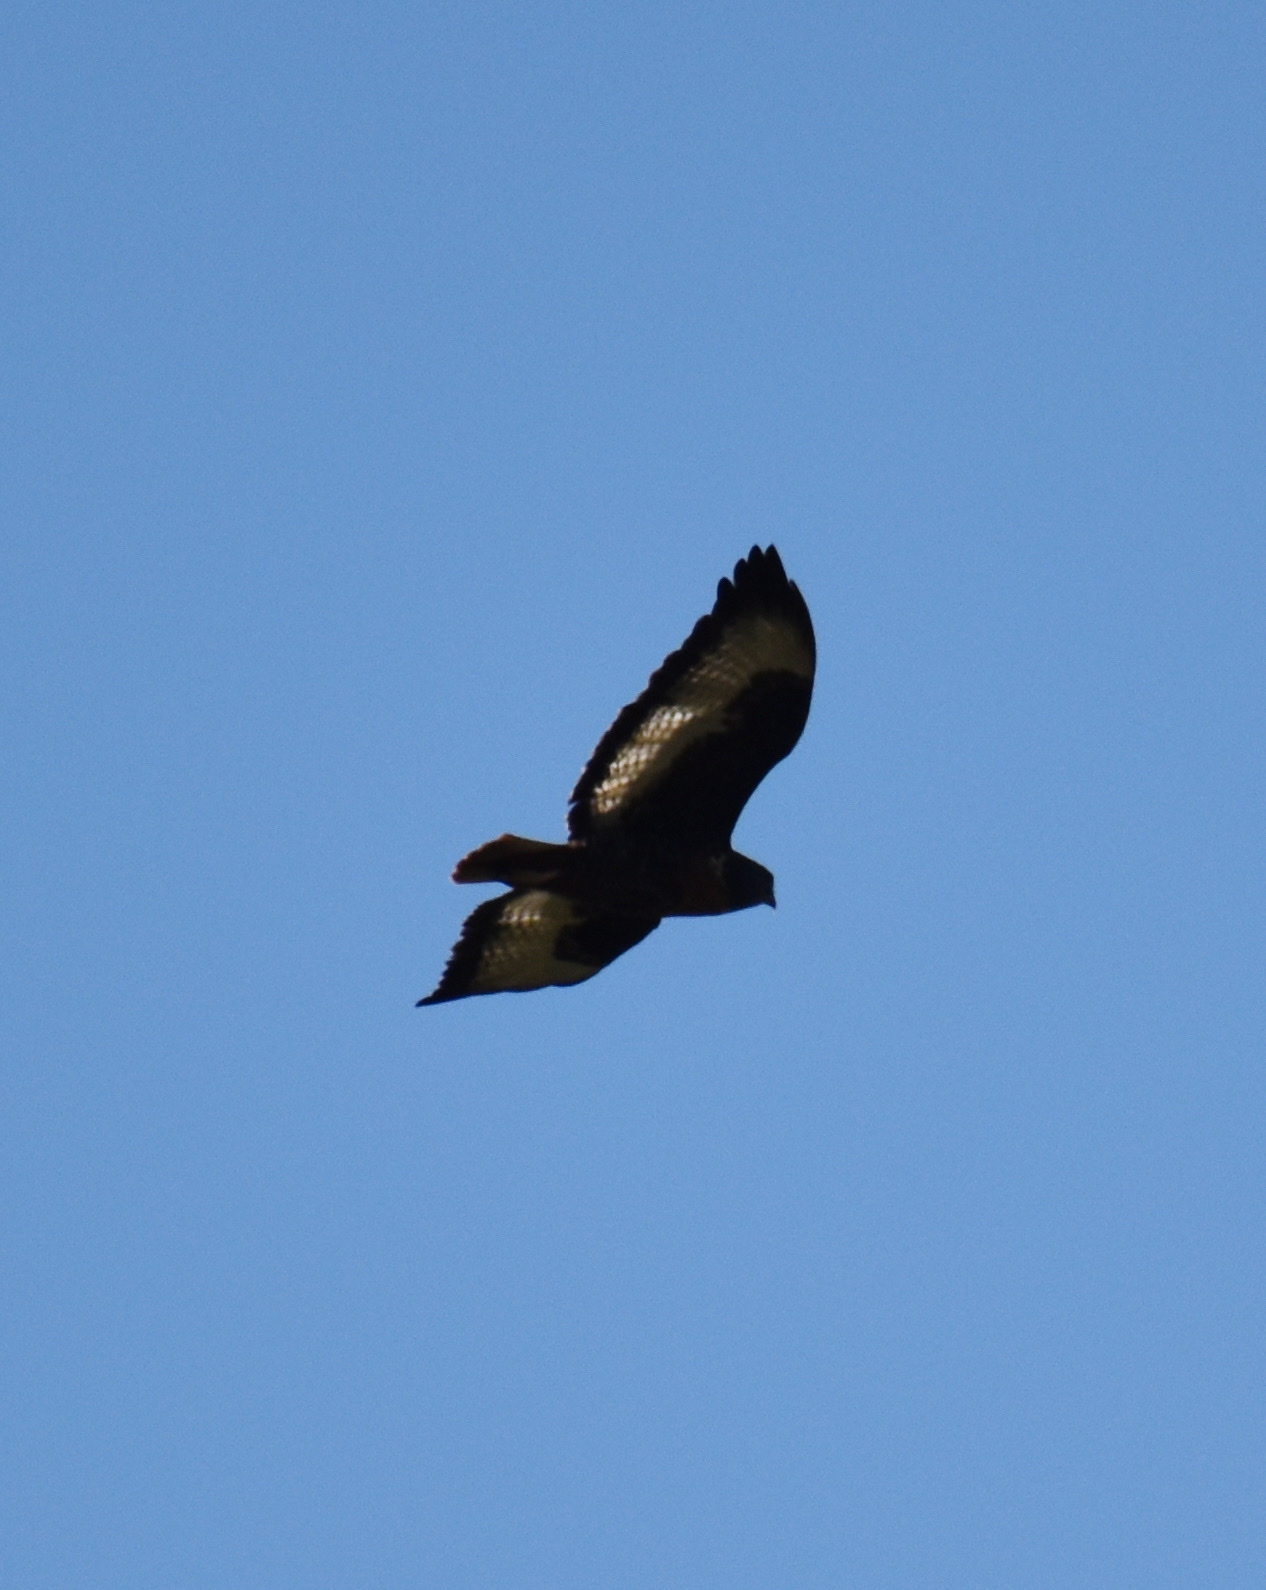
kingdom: Animalia
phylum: Chordata
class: Aves
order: Accipitriformes
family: Accipitridae
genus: Buteo
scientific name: Buteo rufofuscus
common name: Jackal buzzard
